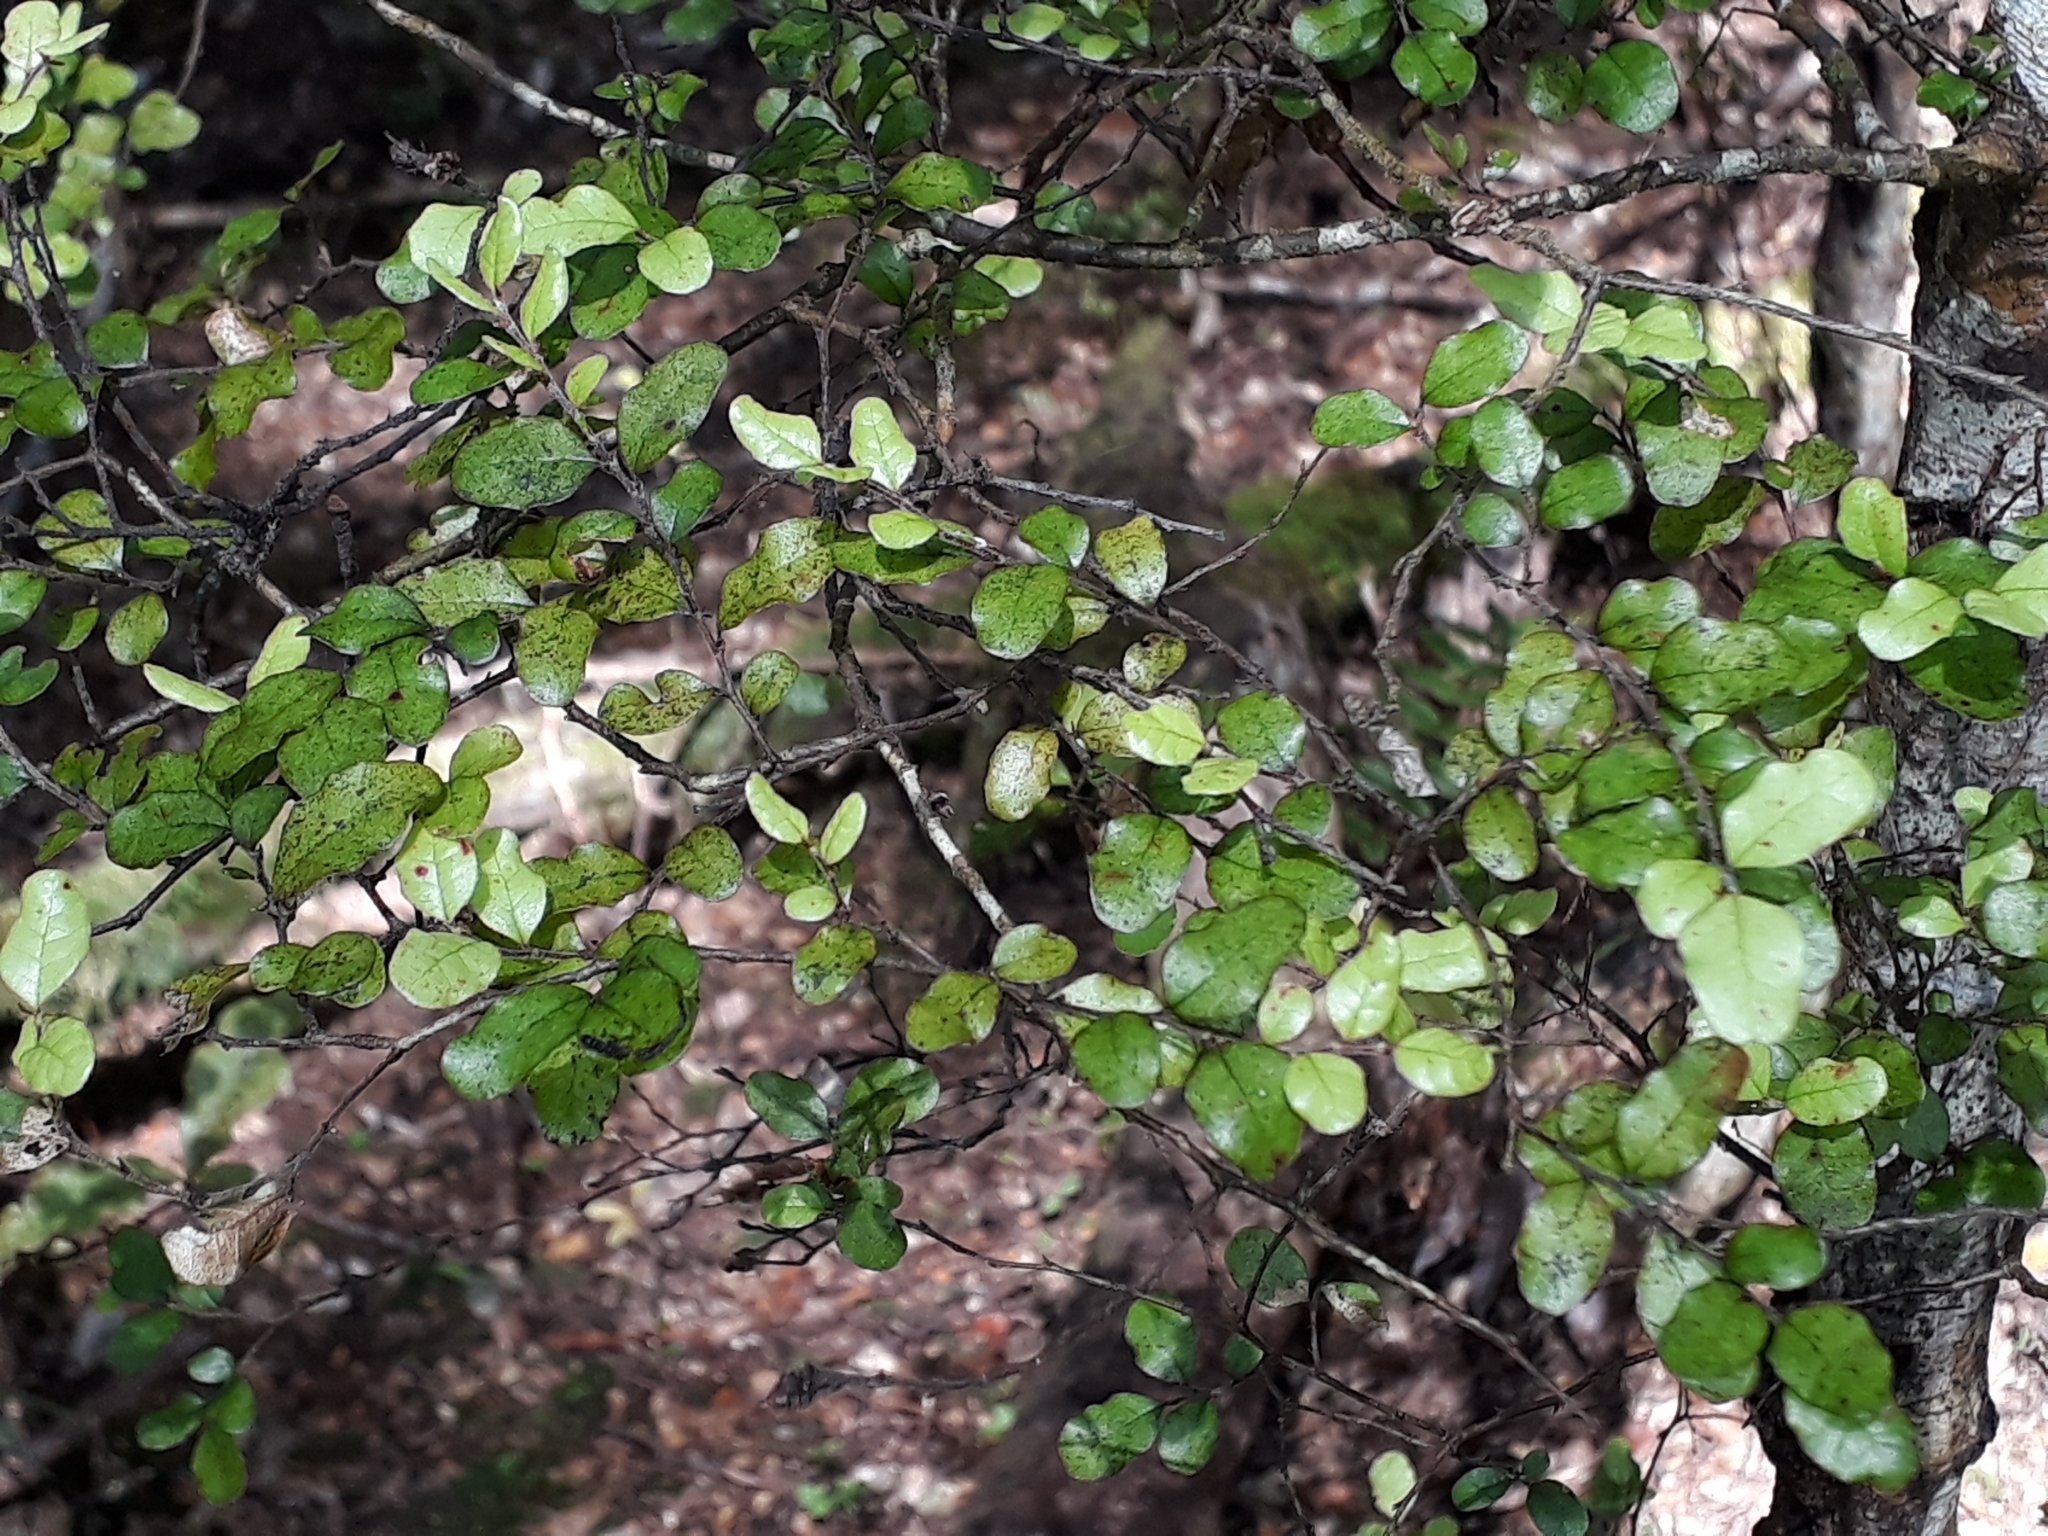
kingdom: Plantae
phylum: Tracheophyta
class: Magnoliopsida
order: Fagales
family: Nothofagaceae
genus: Nothofagus
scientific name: Nothofagus solandri
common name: Black beech
